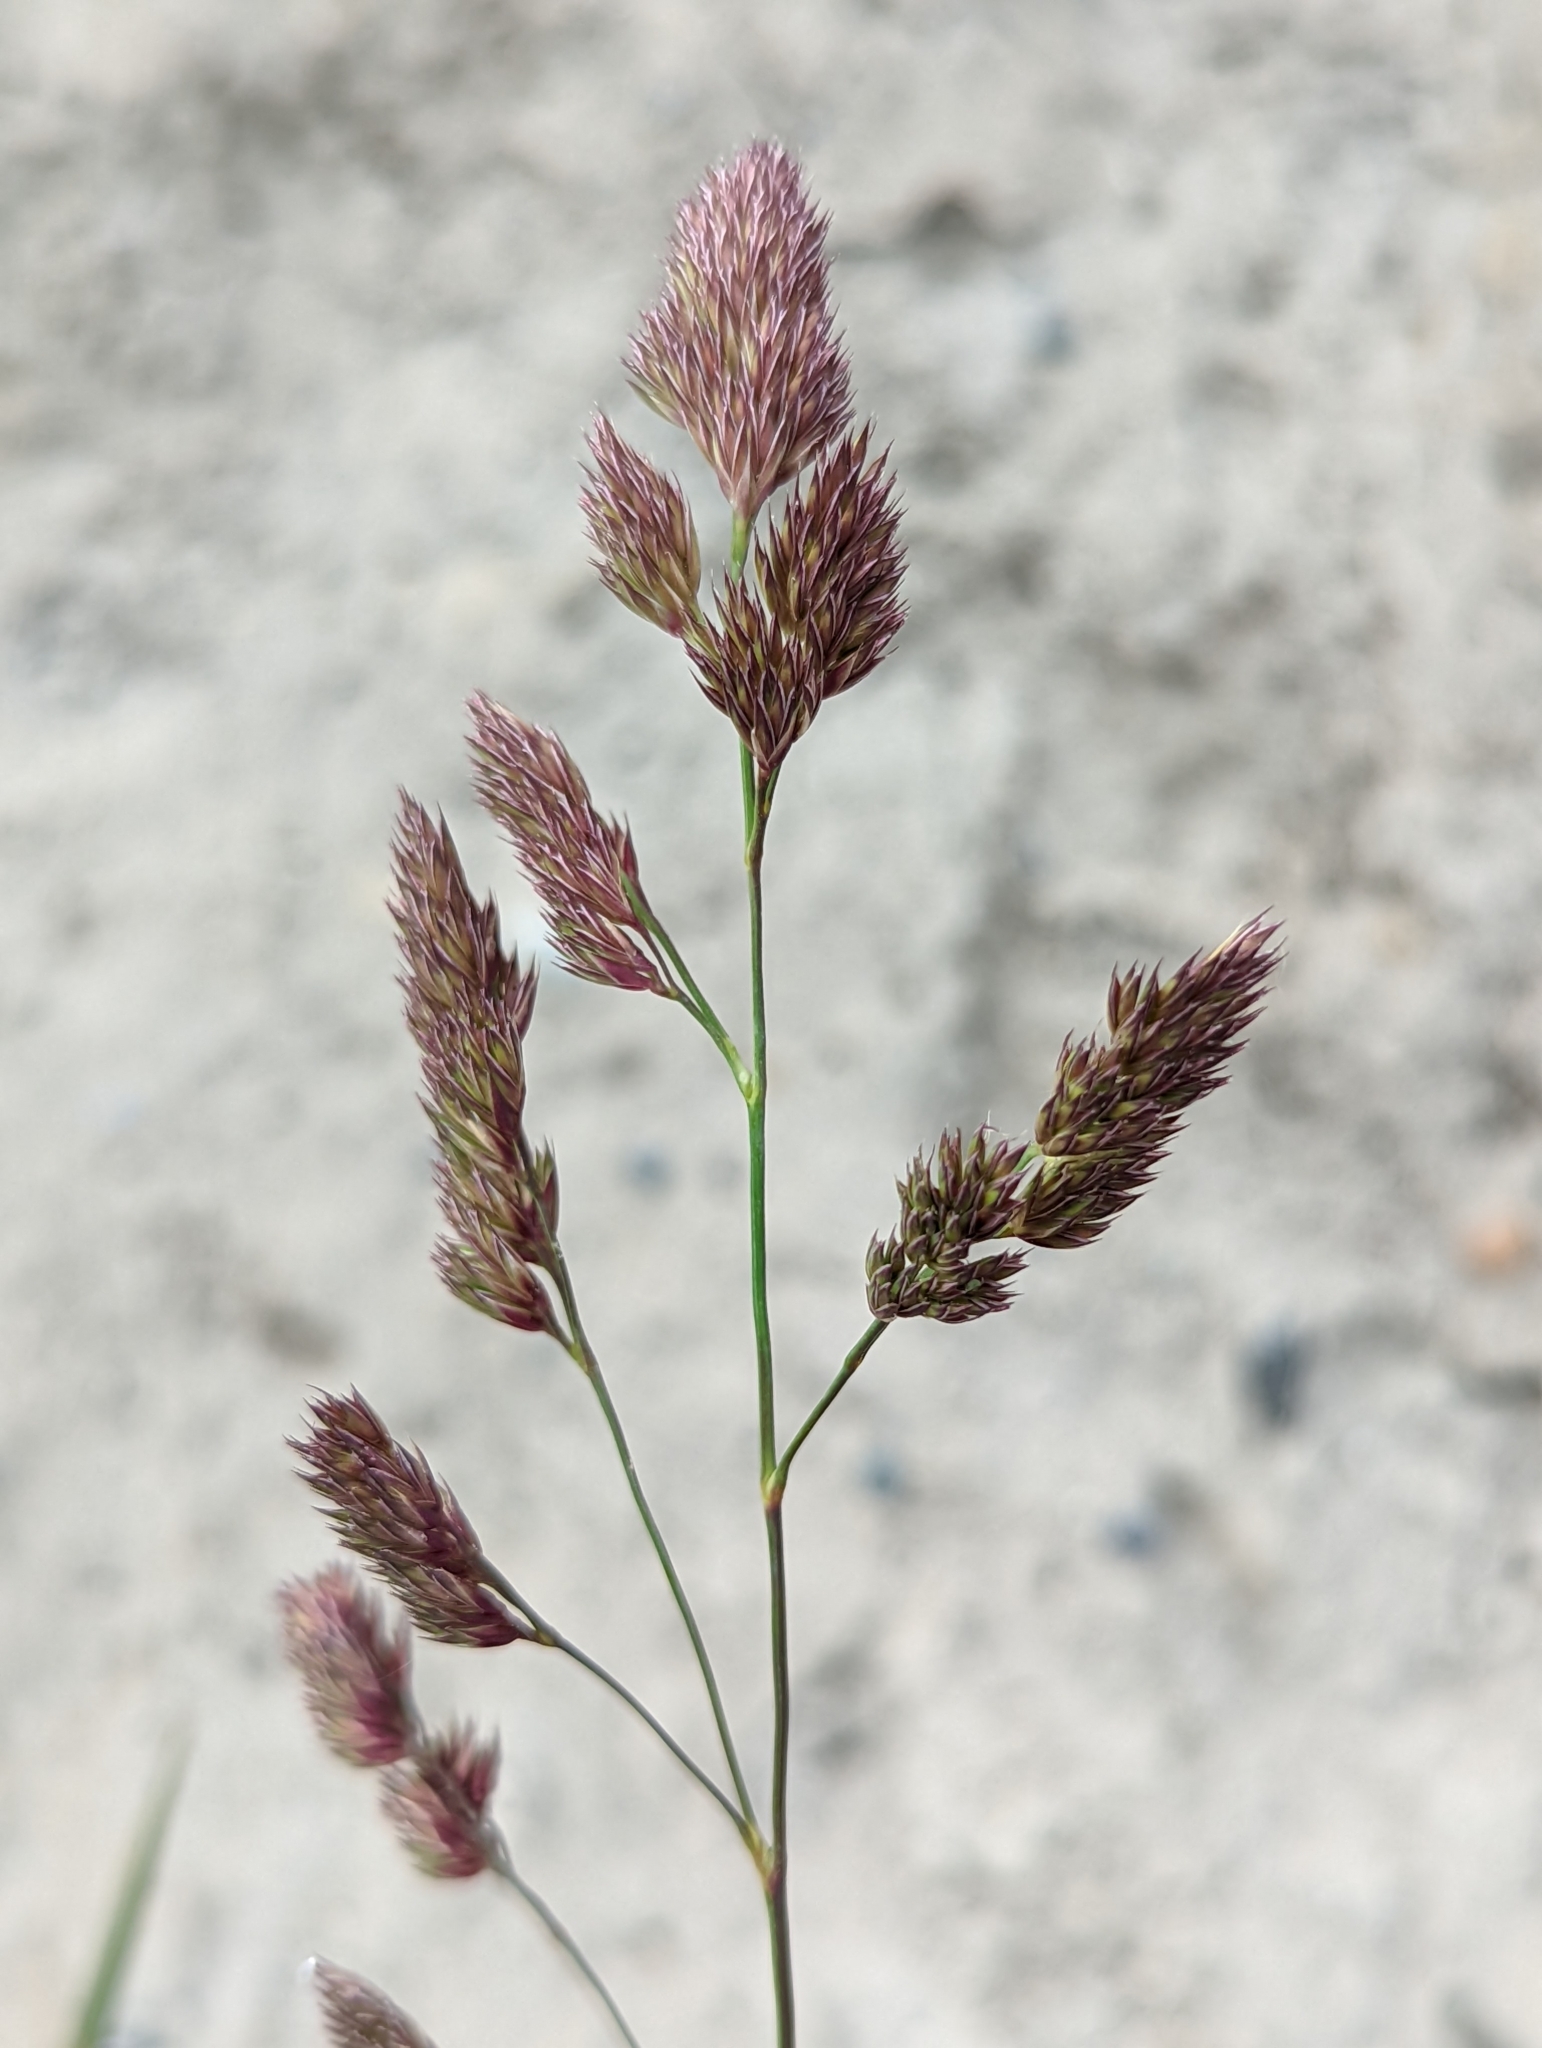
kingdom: Plantae
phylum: Tracheophyta
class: Liliopsida
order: Poales
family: Poaceae
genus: Dactylis
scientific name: Dactylis glomerata
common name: Orchardgrass
